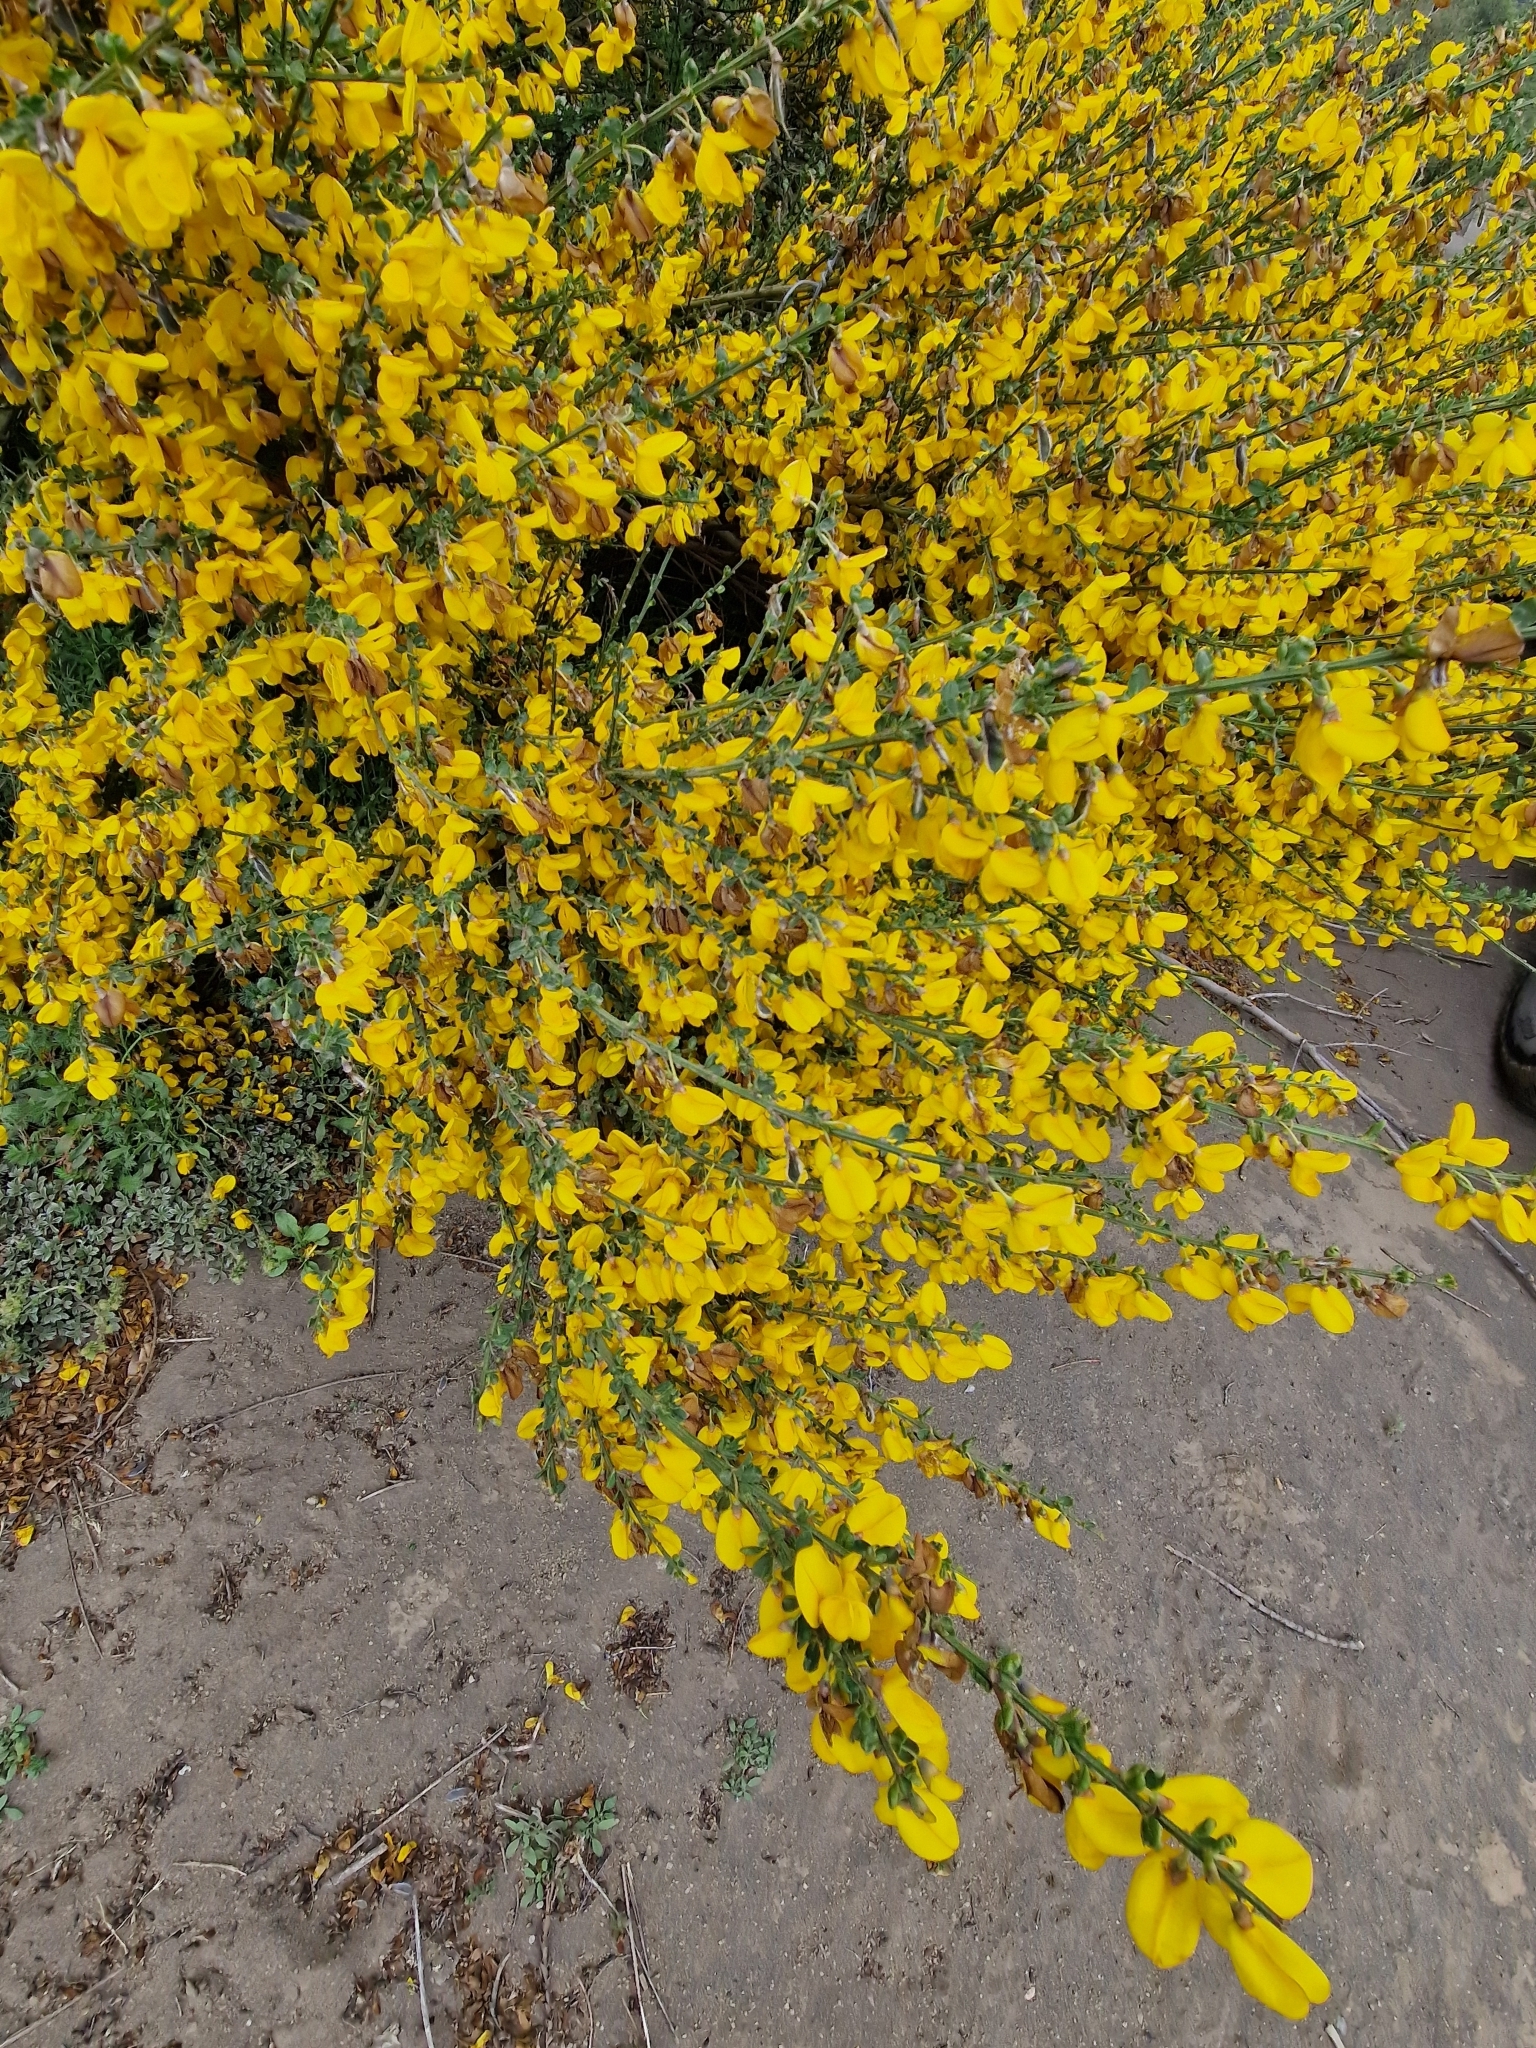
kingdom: Plantae
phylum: Tracheophyta
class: Magnoliopsida
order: Fabales
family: Fabaceae
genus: Cytisus
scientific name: Cytisus scoparius
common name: Scotch broom
